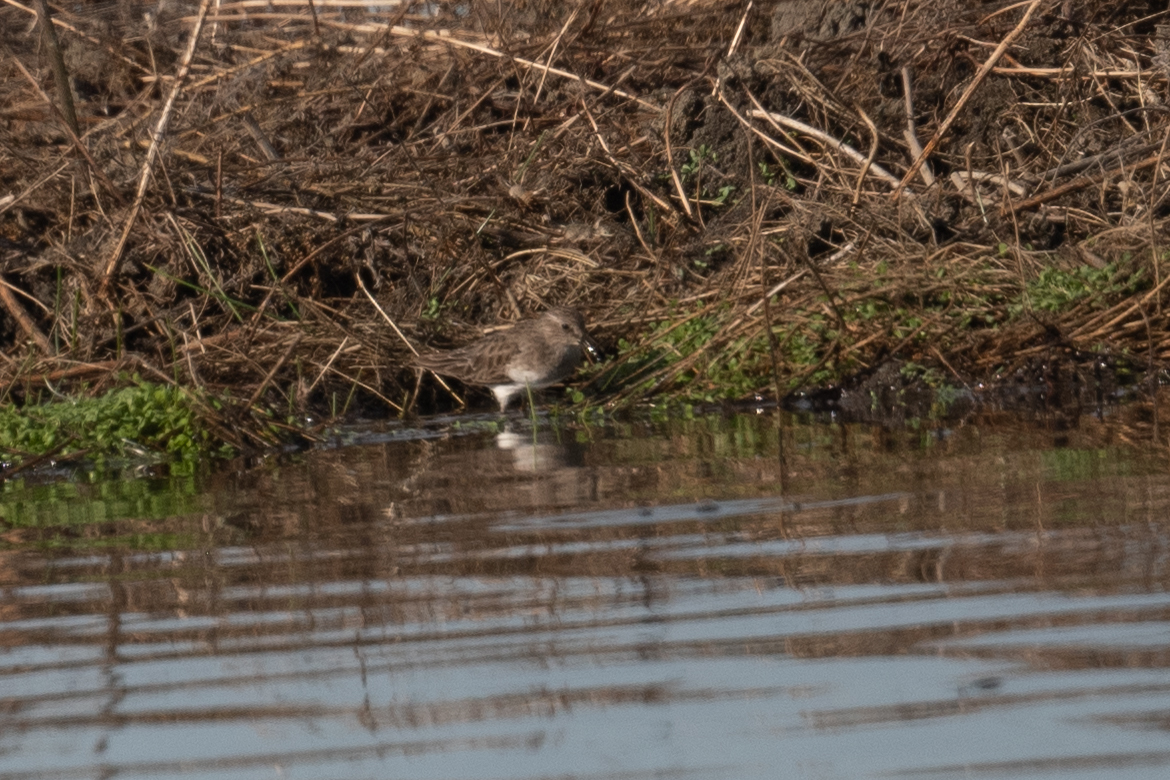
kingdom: Animalia
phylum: Chordata
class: Aves
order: Charadriiformes
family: Scolopacidae
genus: Calidris
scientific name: Calidris minutilla
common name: Least sandpiper
